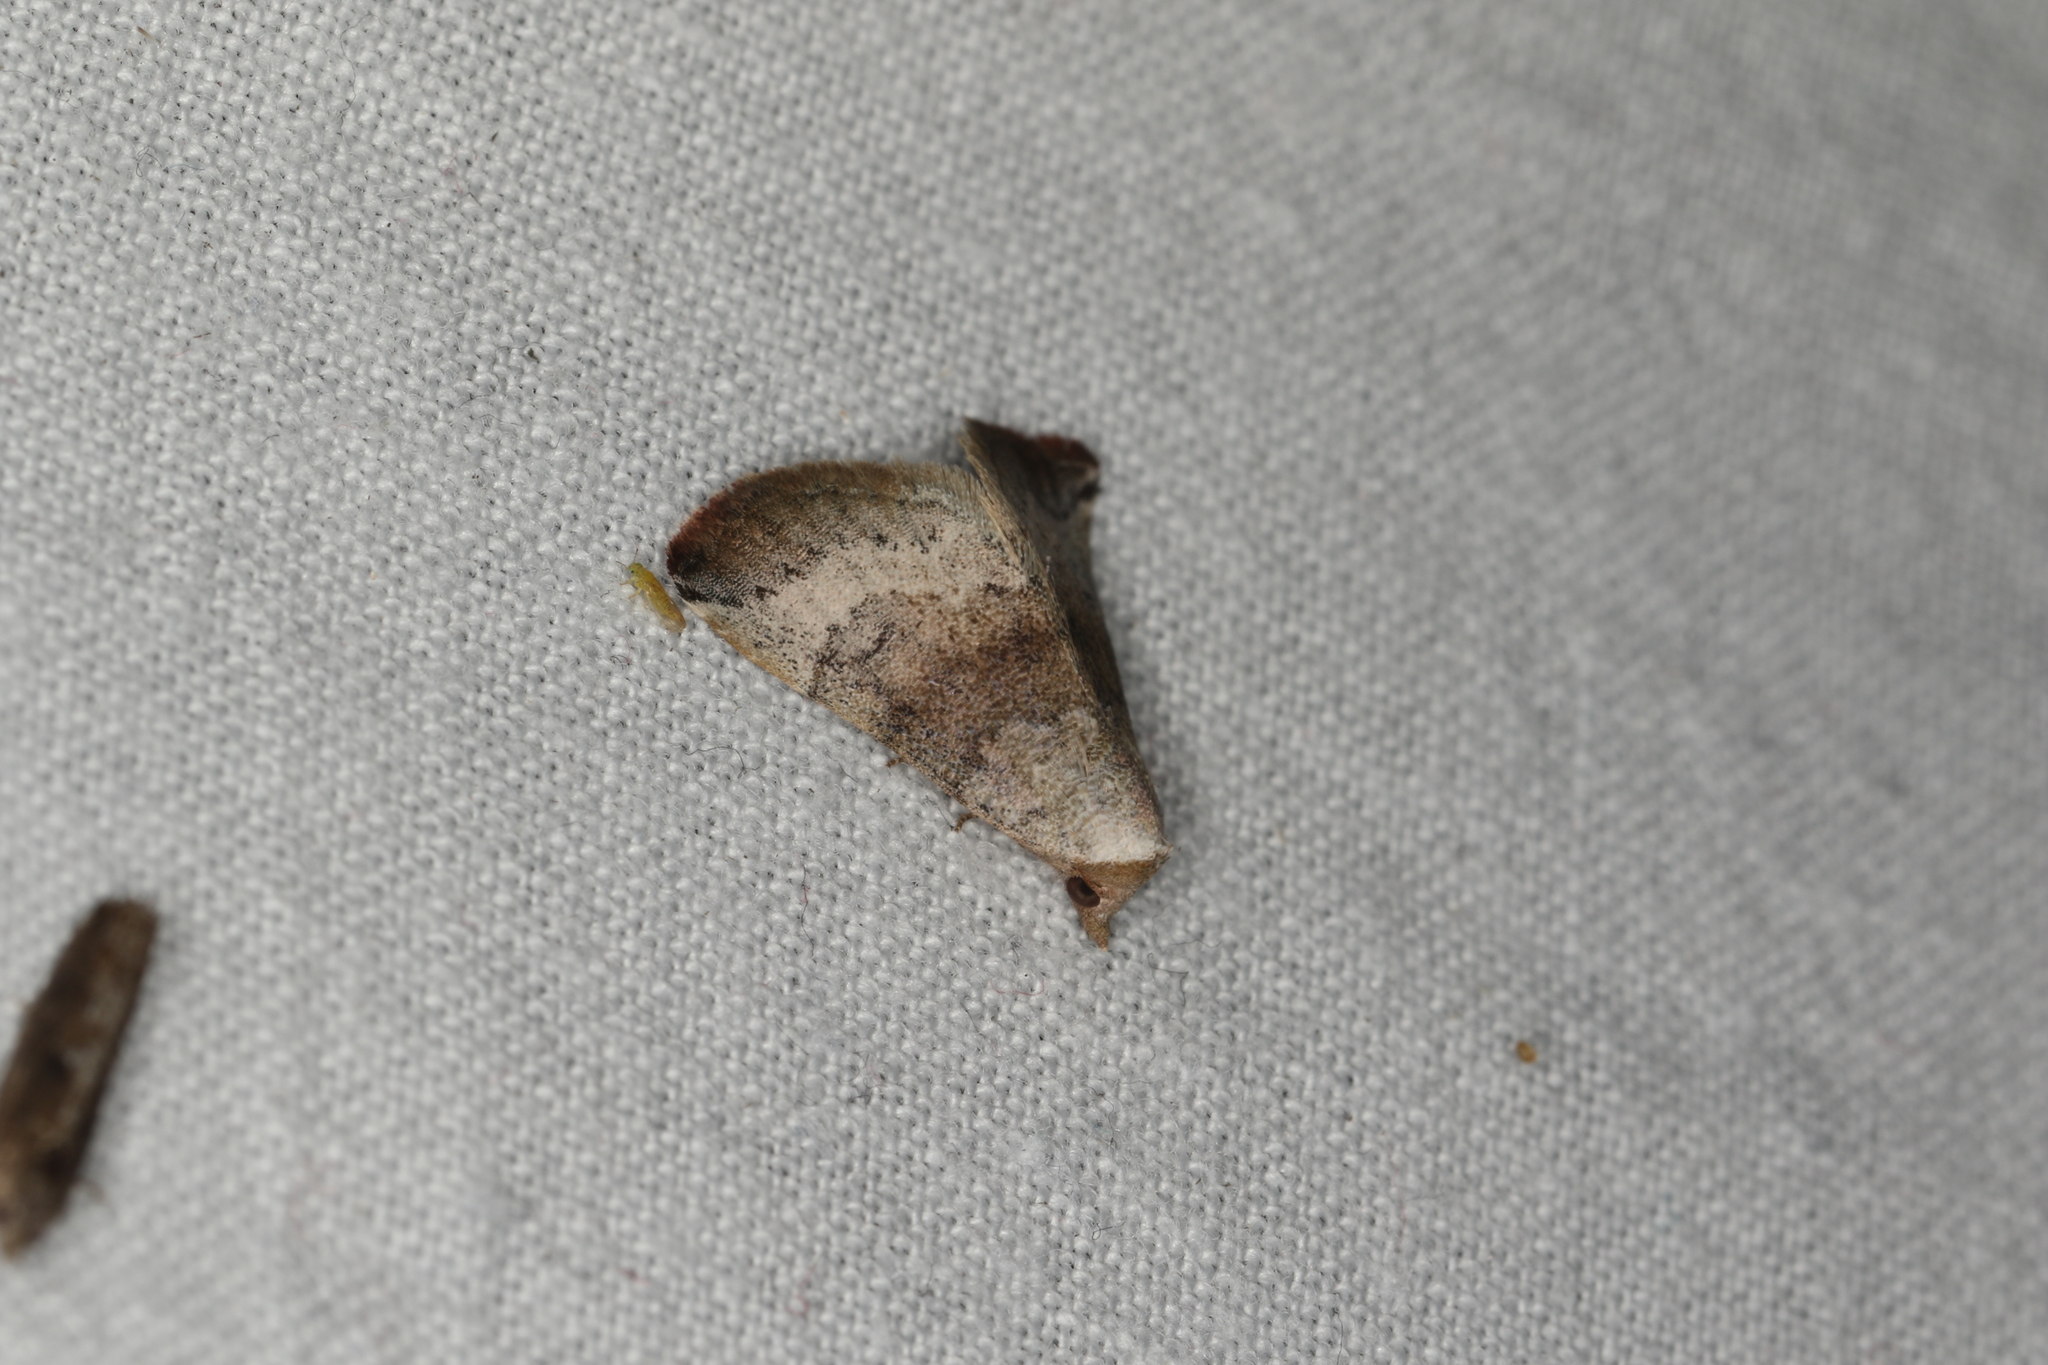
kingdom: Animalia
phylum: Arthropoda
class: Insecta
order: Lepidoptera
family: Noctuidae
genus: Mataeomera
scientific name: Mataeomera mesotaenia
